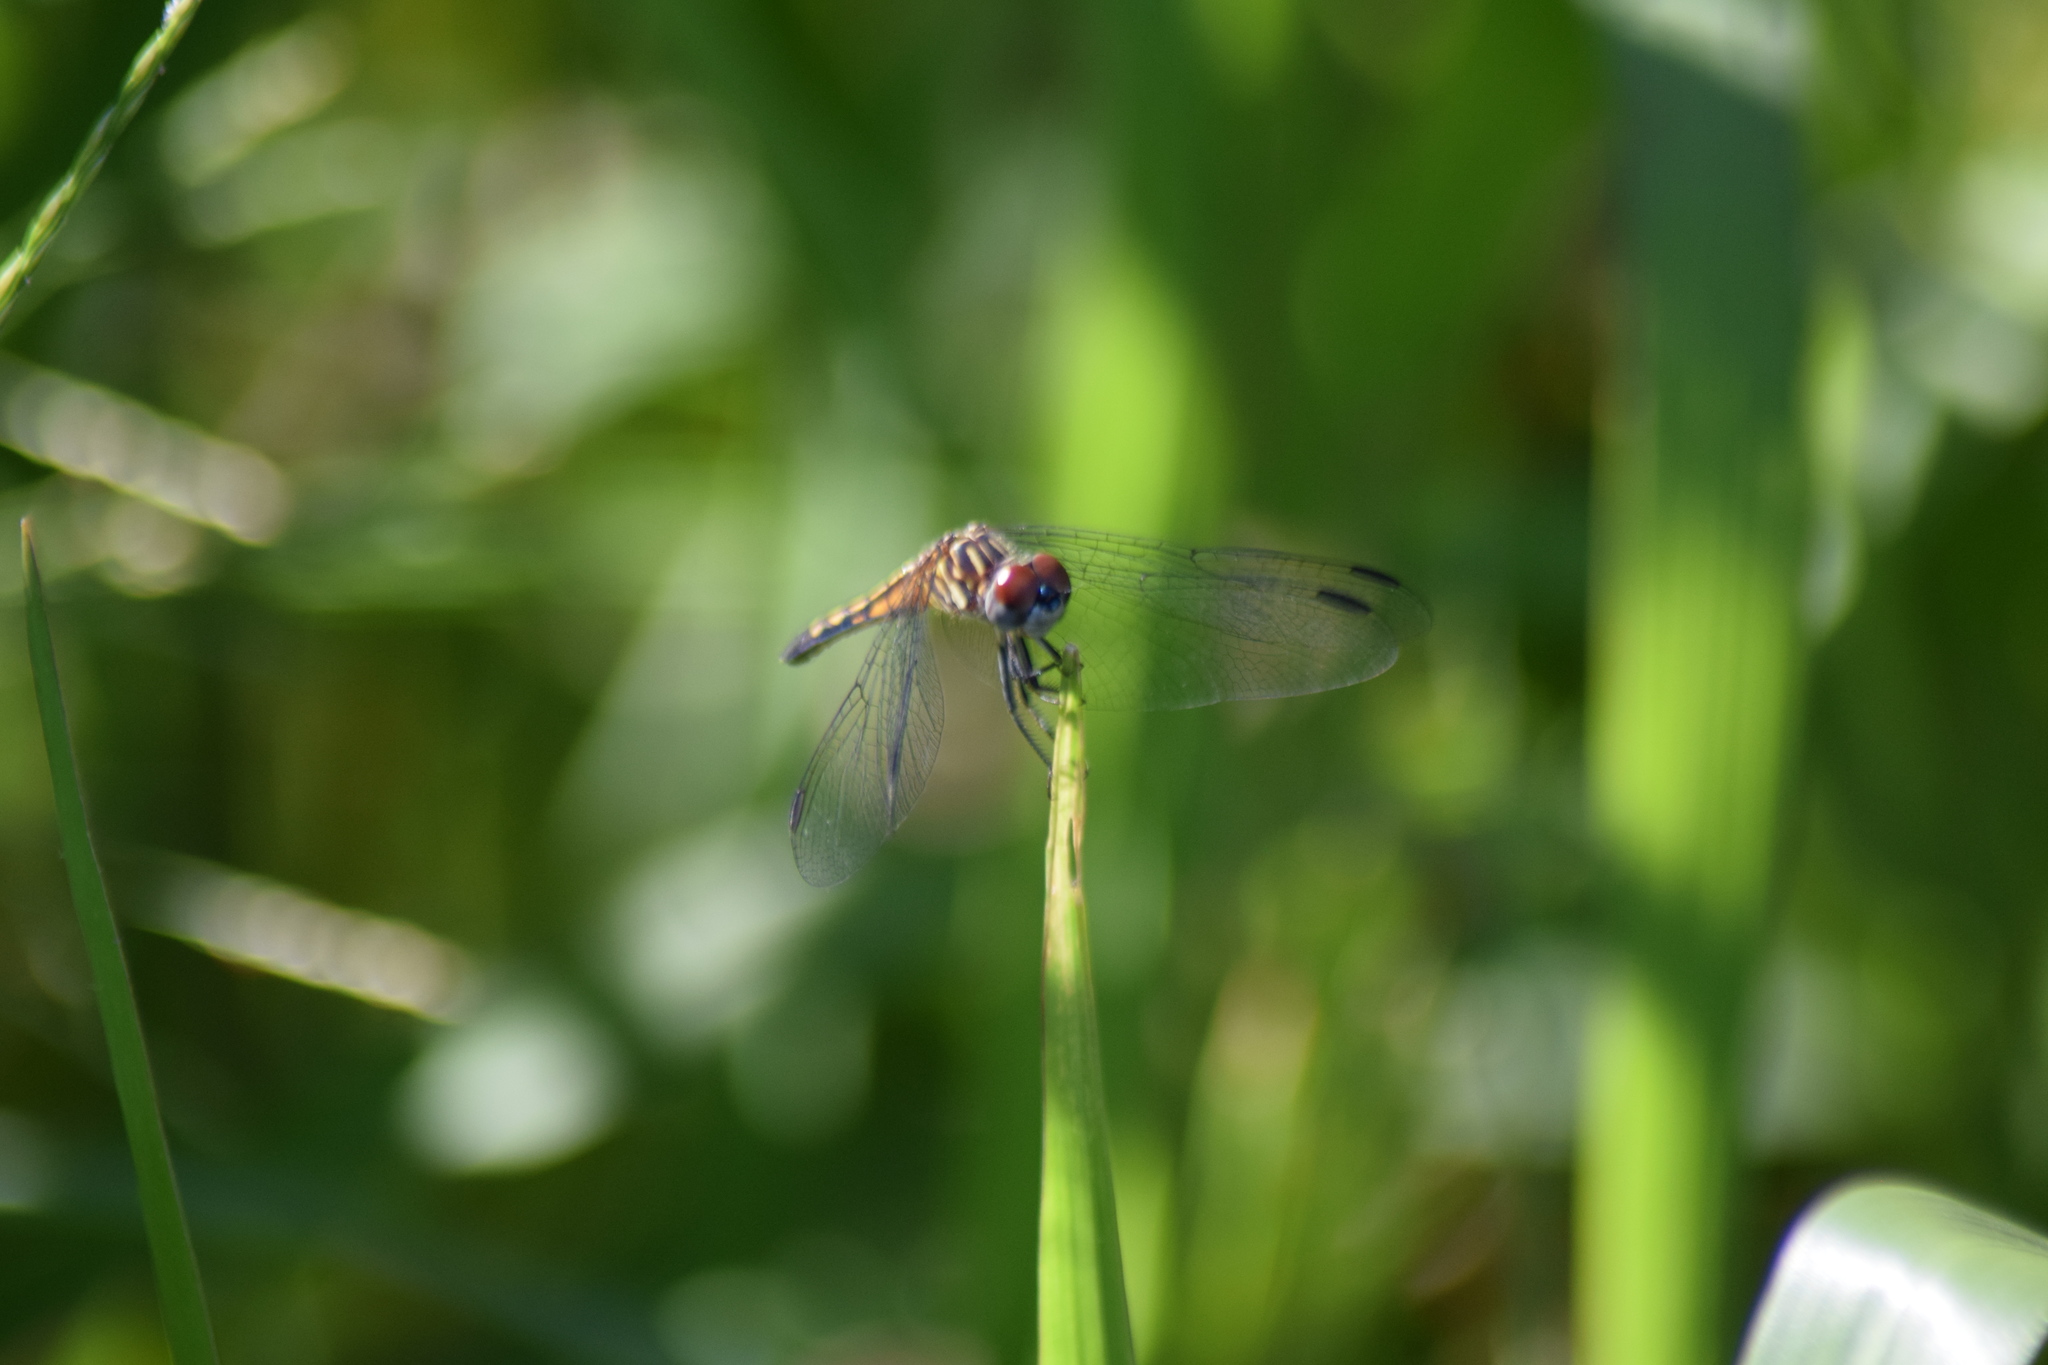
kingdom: Animalia
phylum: Arthropoda
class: Insecta
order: Odonata
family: Libellulidae
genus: Pachydiplax
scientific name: Pachydiplax longipennis
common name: Blue dasher
